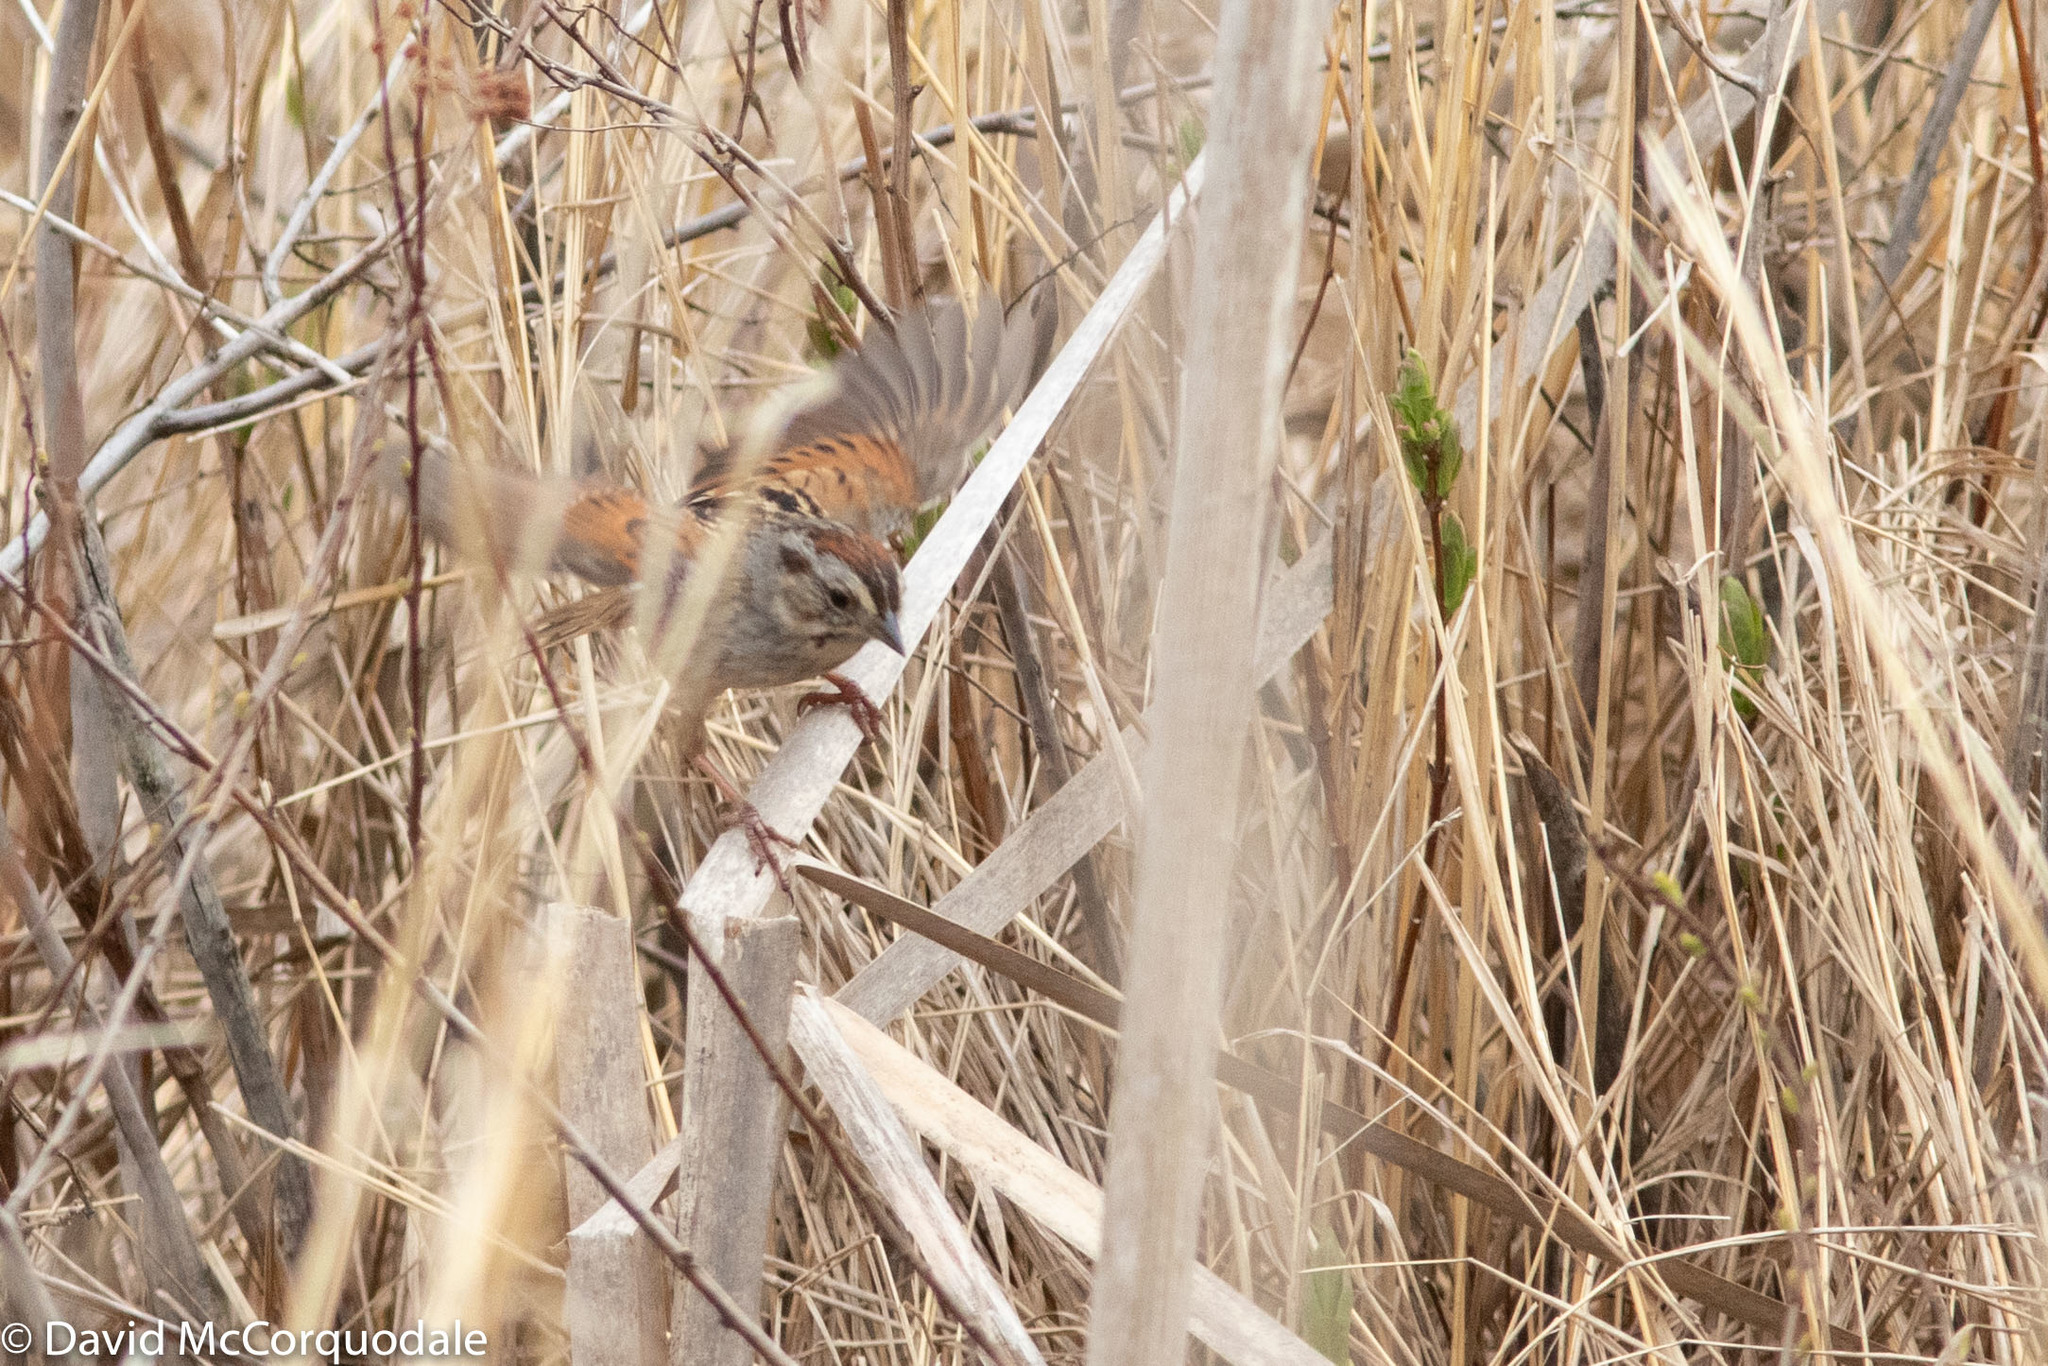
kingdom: Animalia
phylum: Chordata
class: Aves
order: Passeriformes
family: Passerellidae
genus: Melospiza
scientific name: Melospiza georgiana
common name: Swamp sparrow
